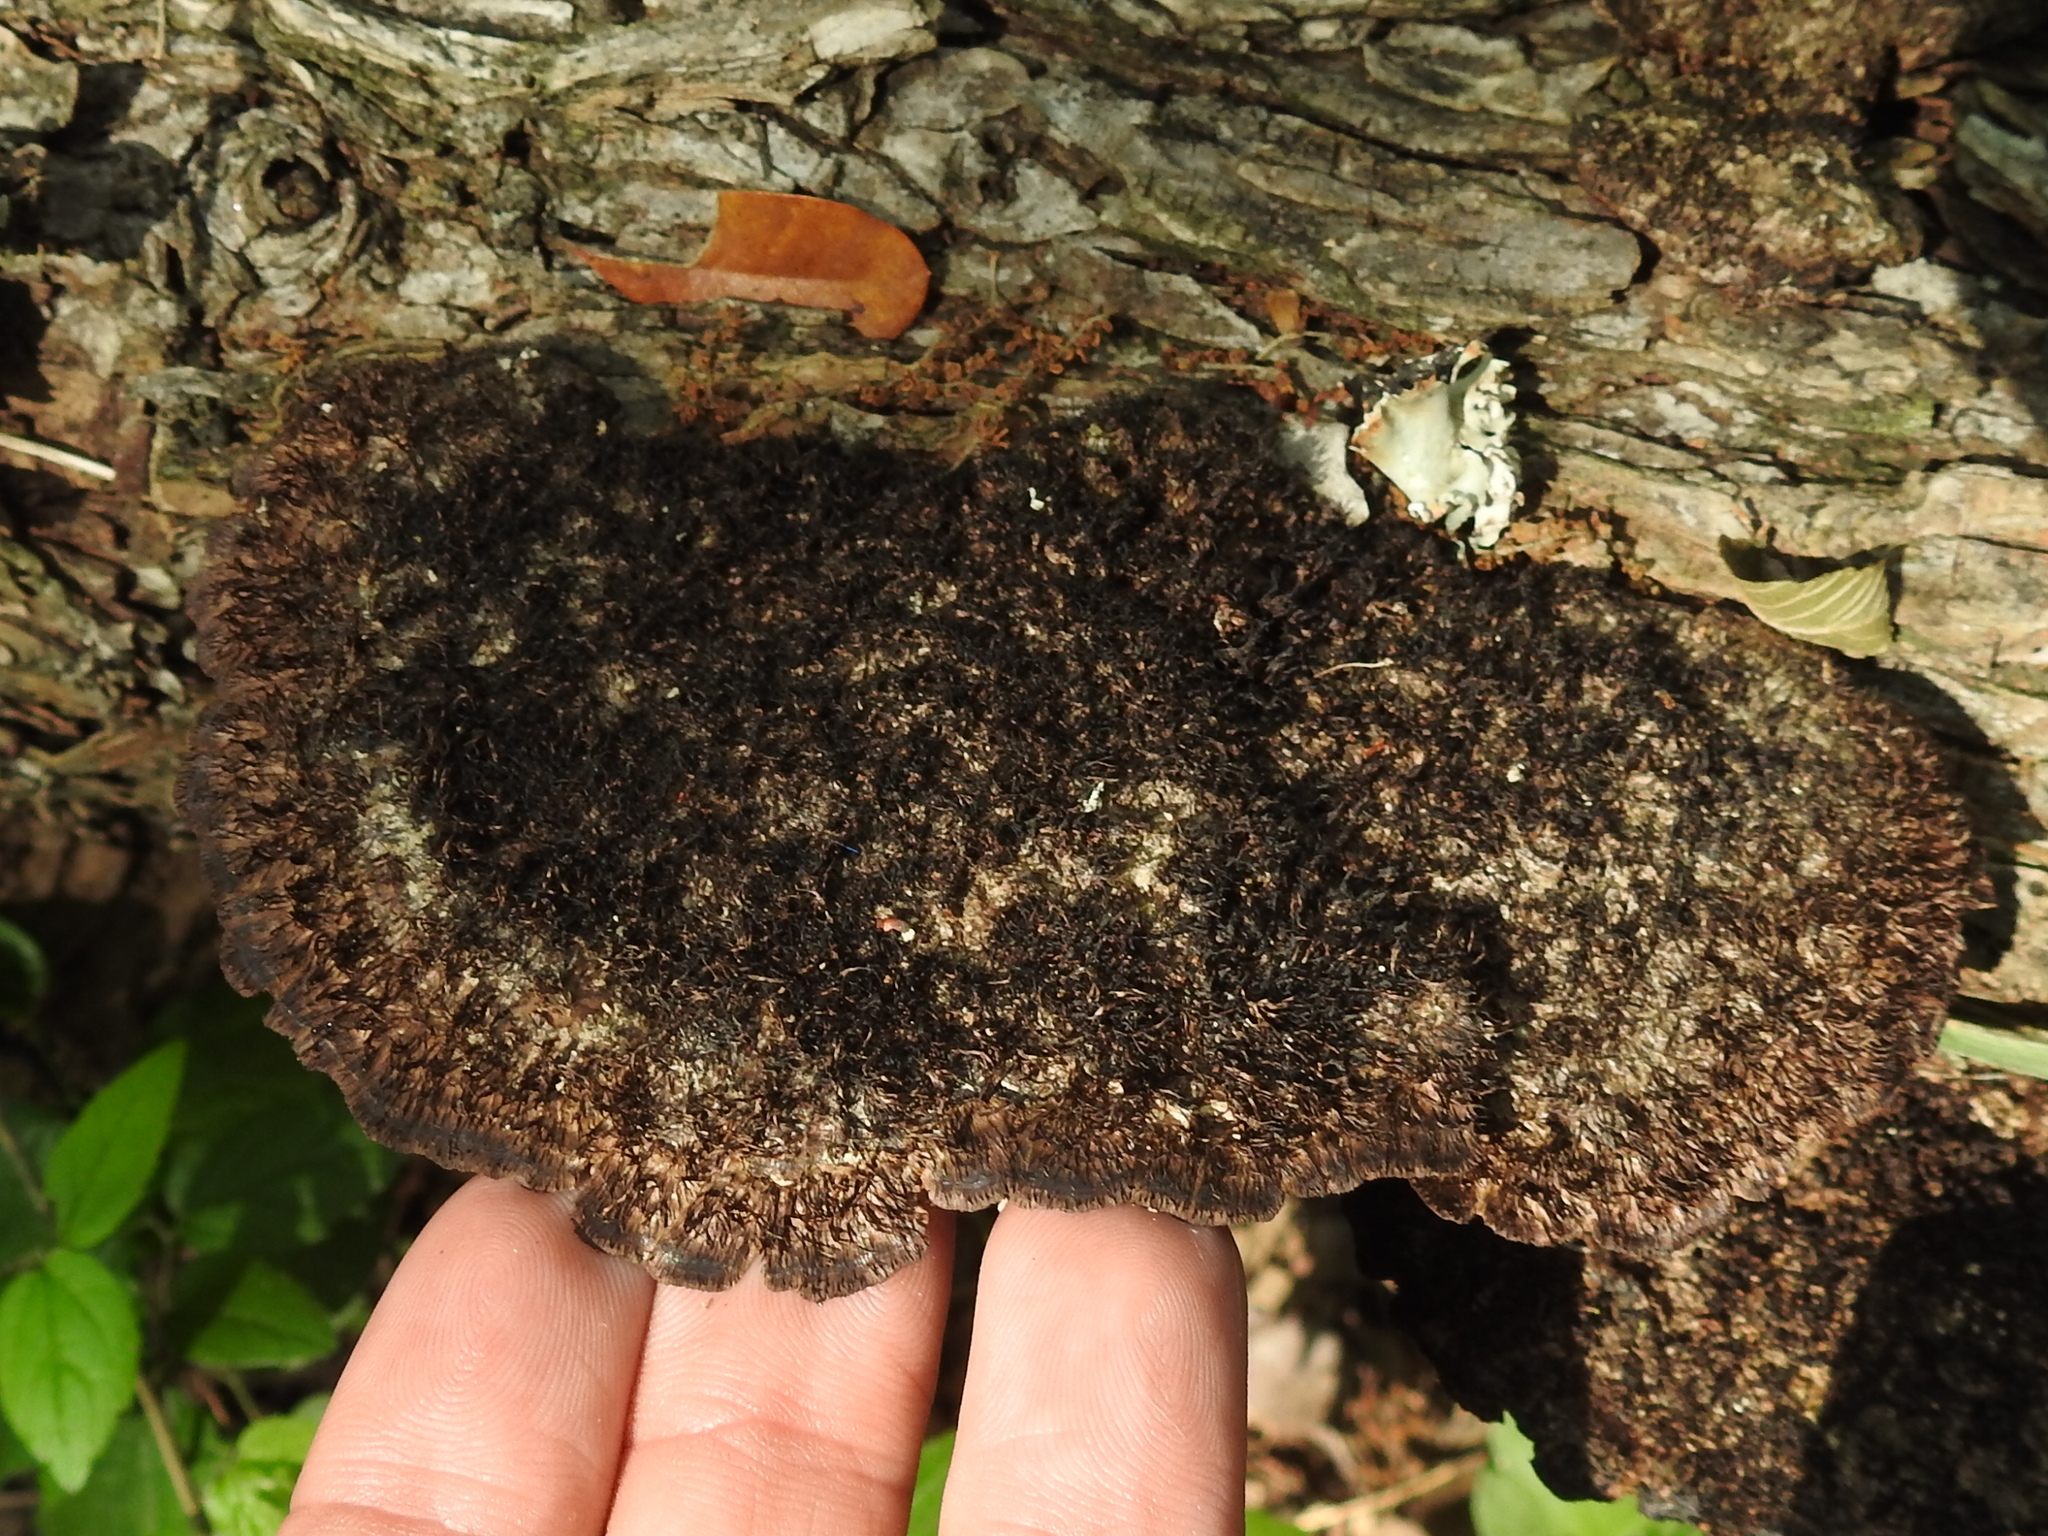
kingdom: Fungi
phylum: Basidiomycota
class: Agaricomycetes
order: Polyporales
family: Cerrenaceae
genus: Cerrena
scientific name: Cerrena hydnoides
